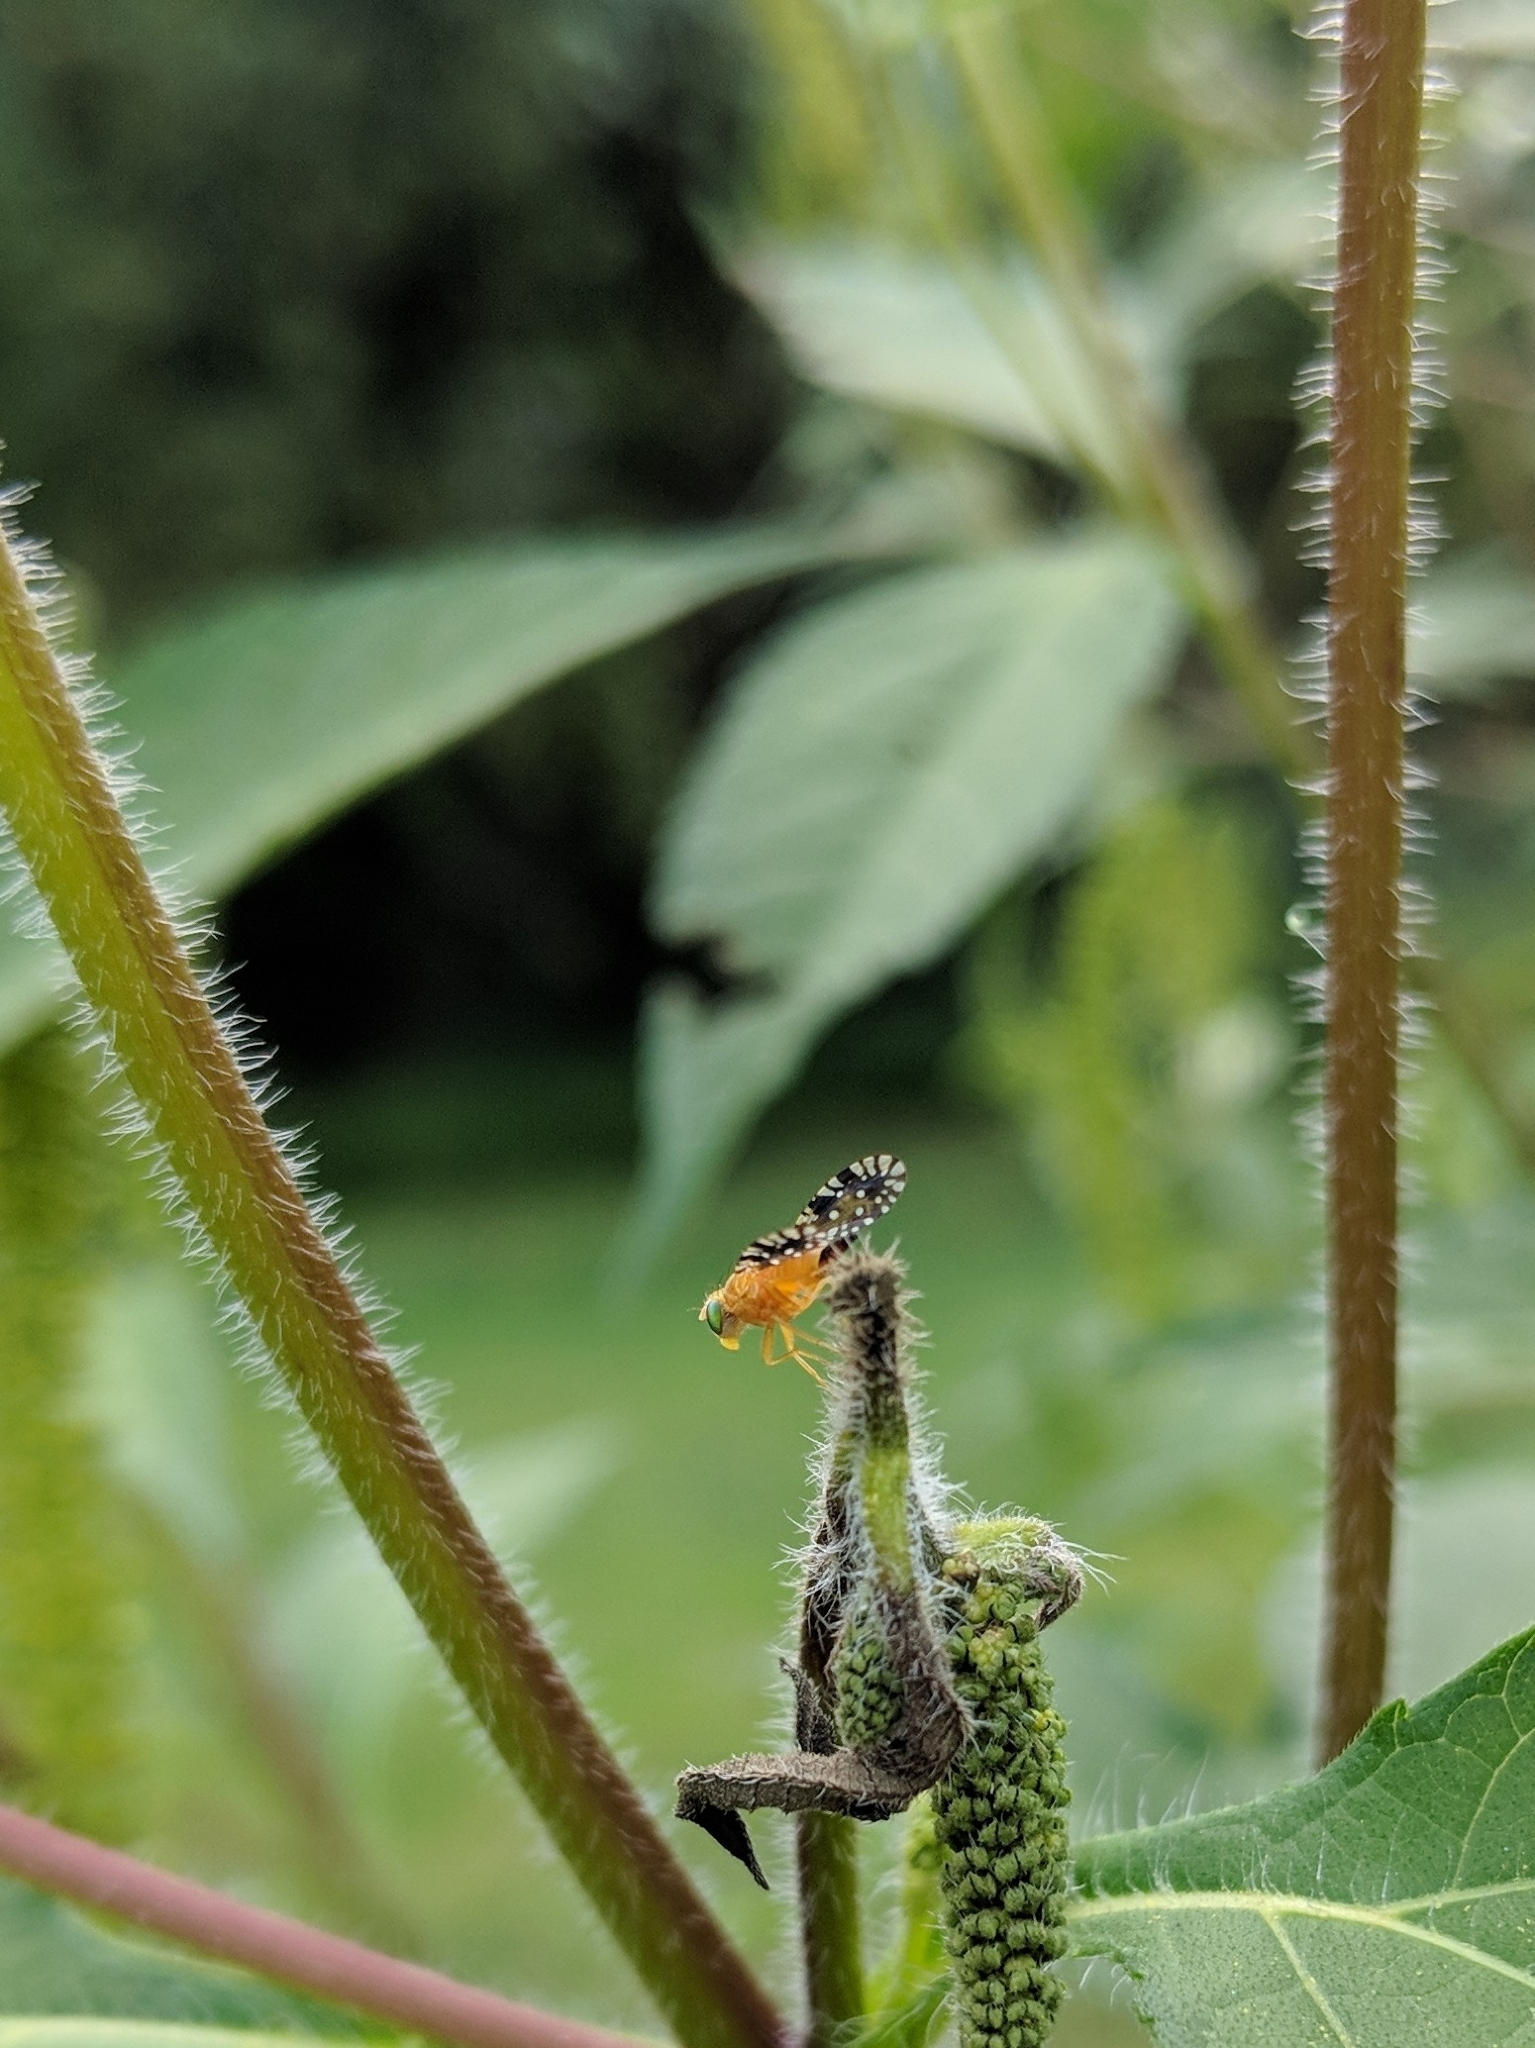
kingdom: Animalia
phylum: Arthropoda
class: Insecta
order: Diptera
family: Tephritidae
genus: Euaresta
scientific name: Euaresta festiva
